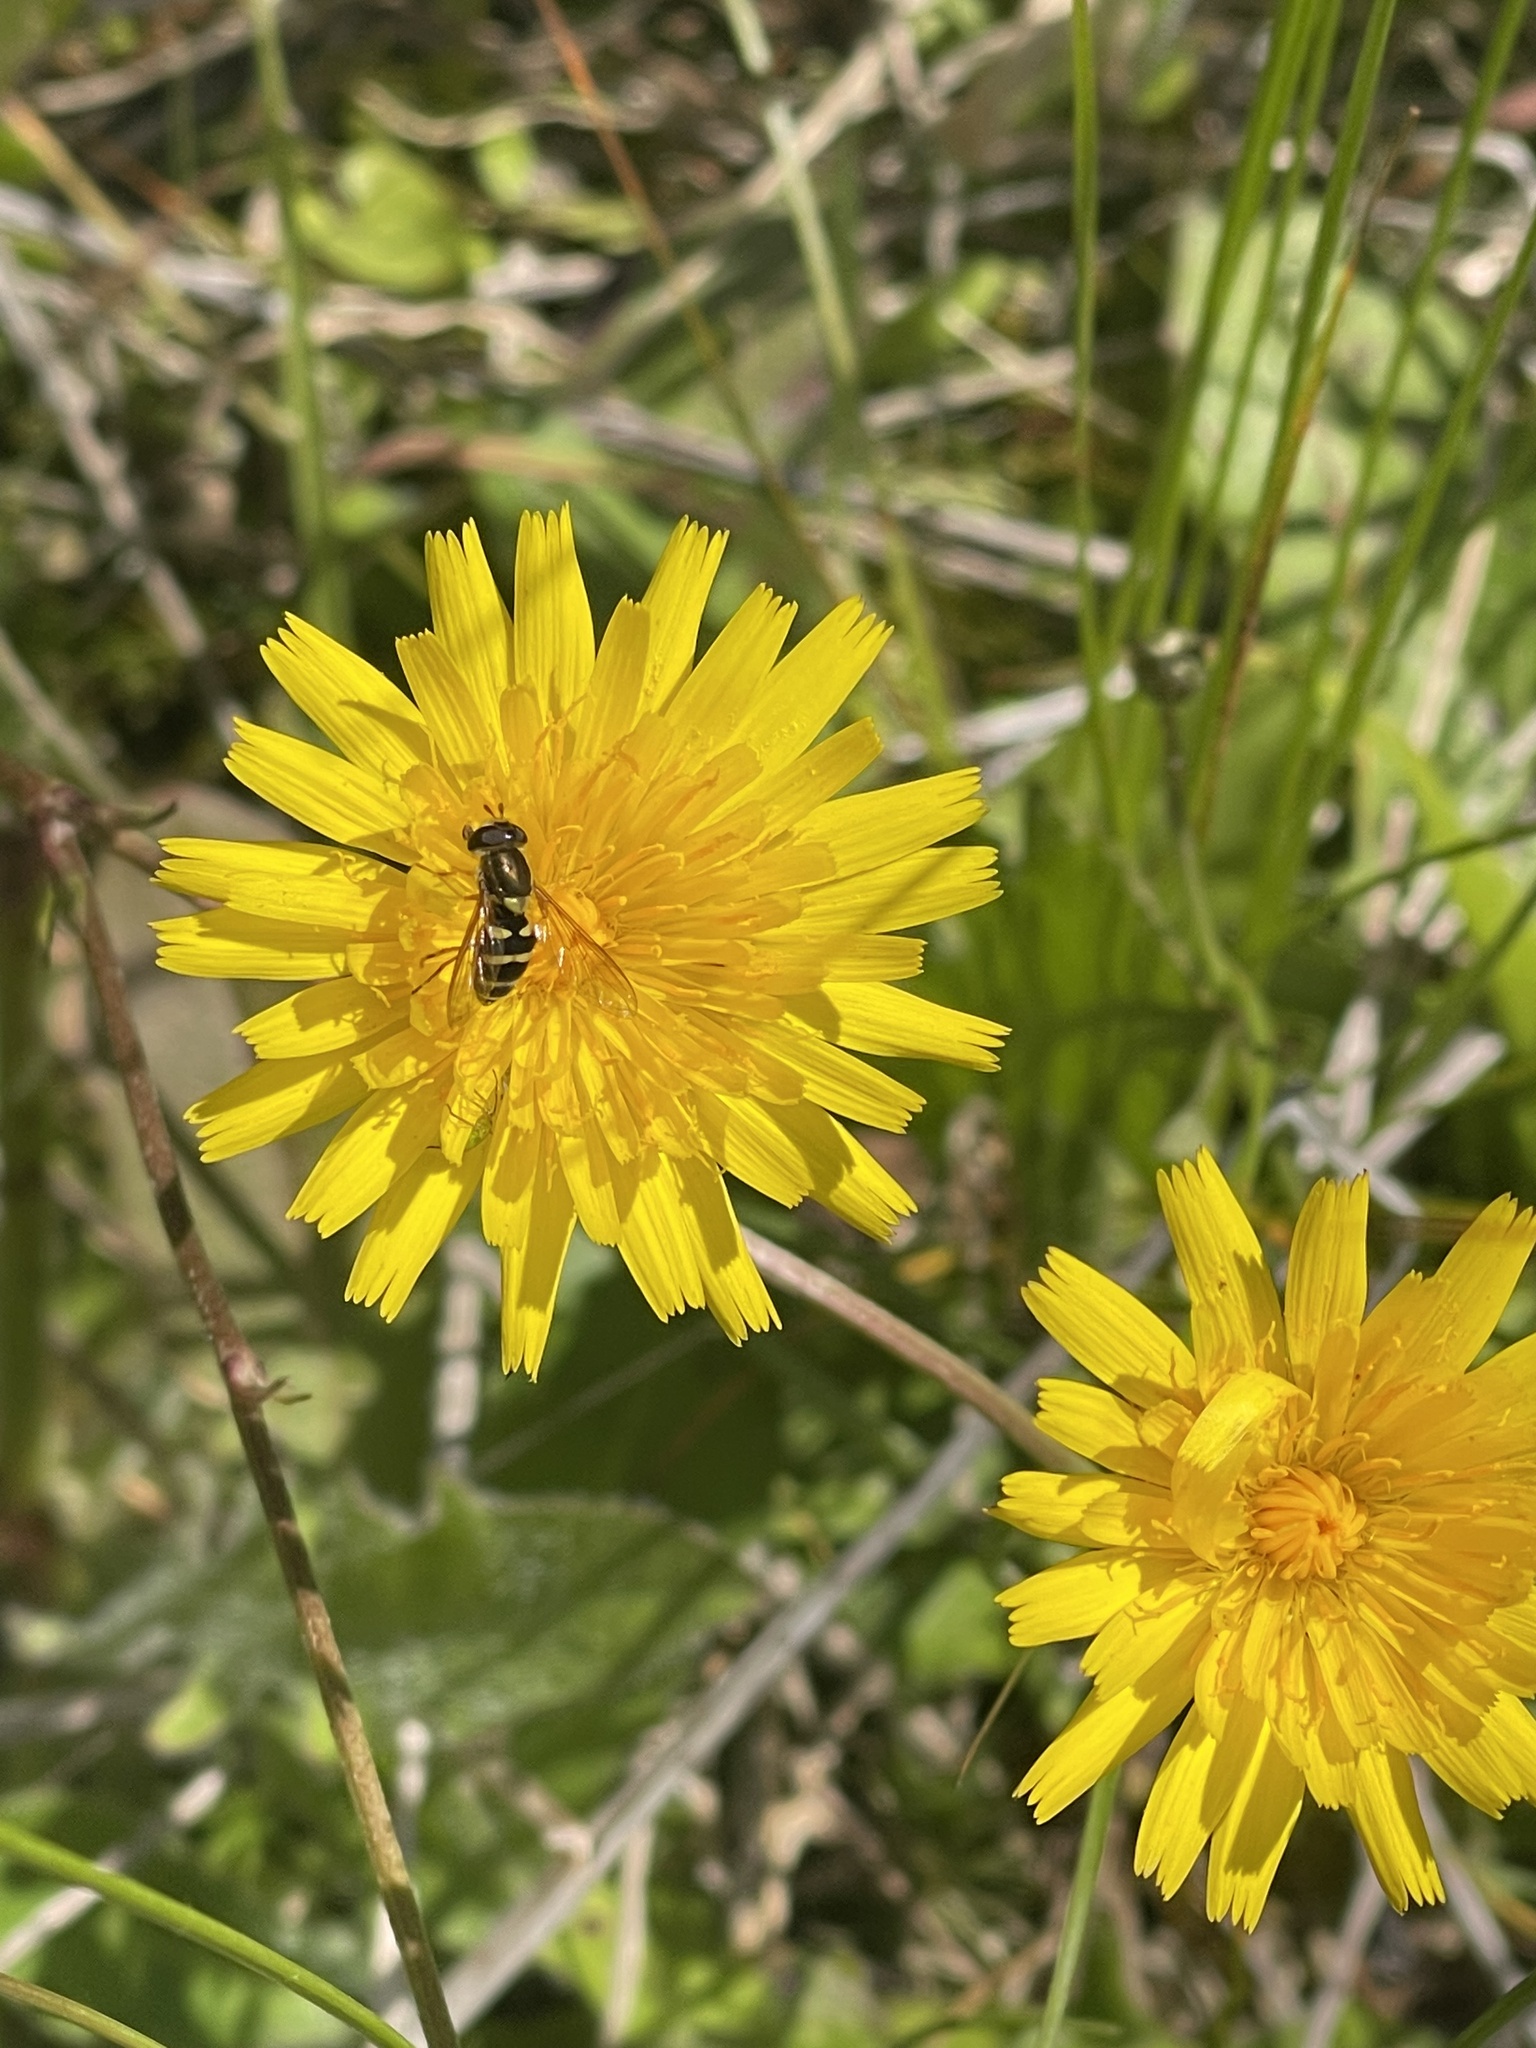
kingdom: Animalia
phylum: Arthropoda
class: Insecta
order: Diptera
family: Syrphidae
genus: Syrphus
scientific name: Syrphus opinator
